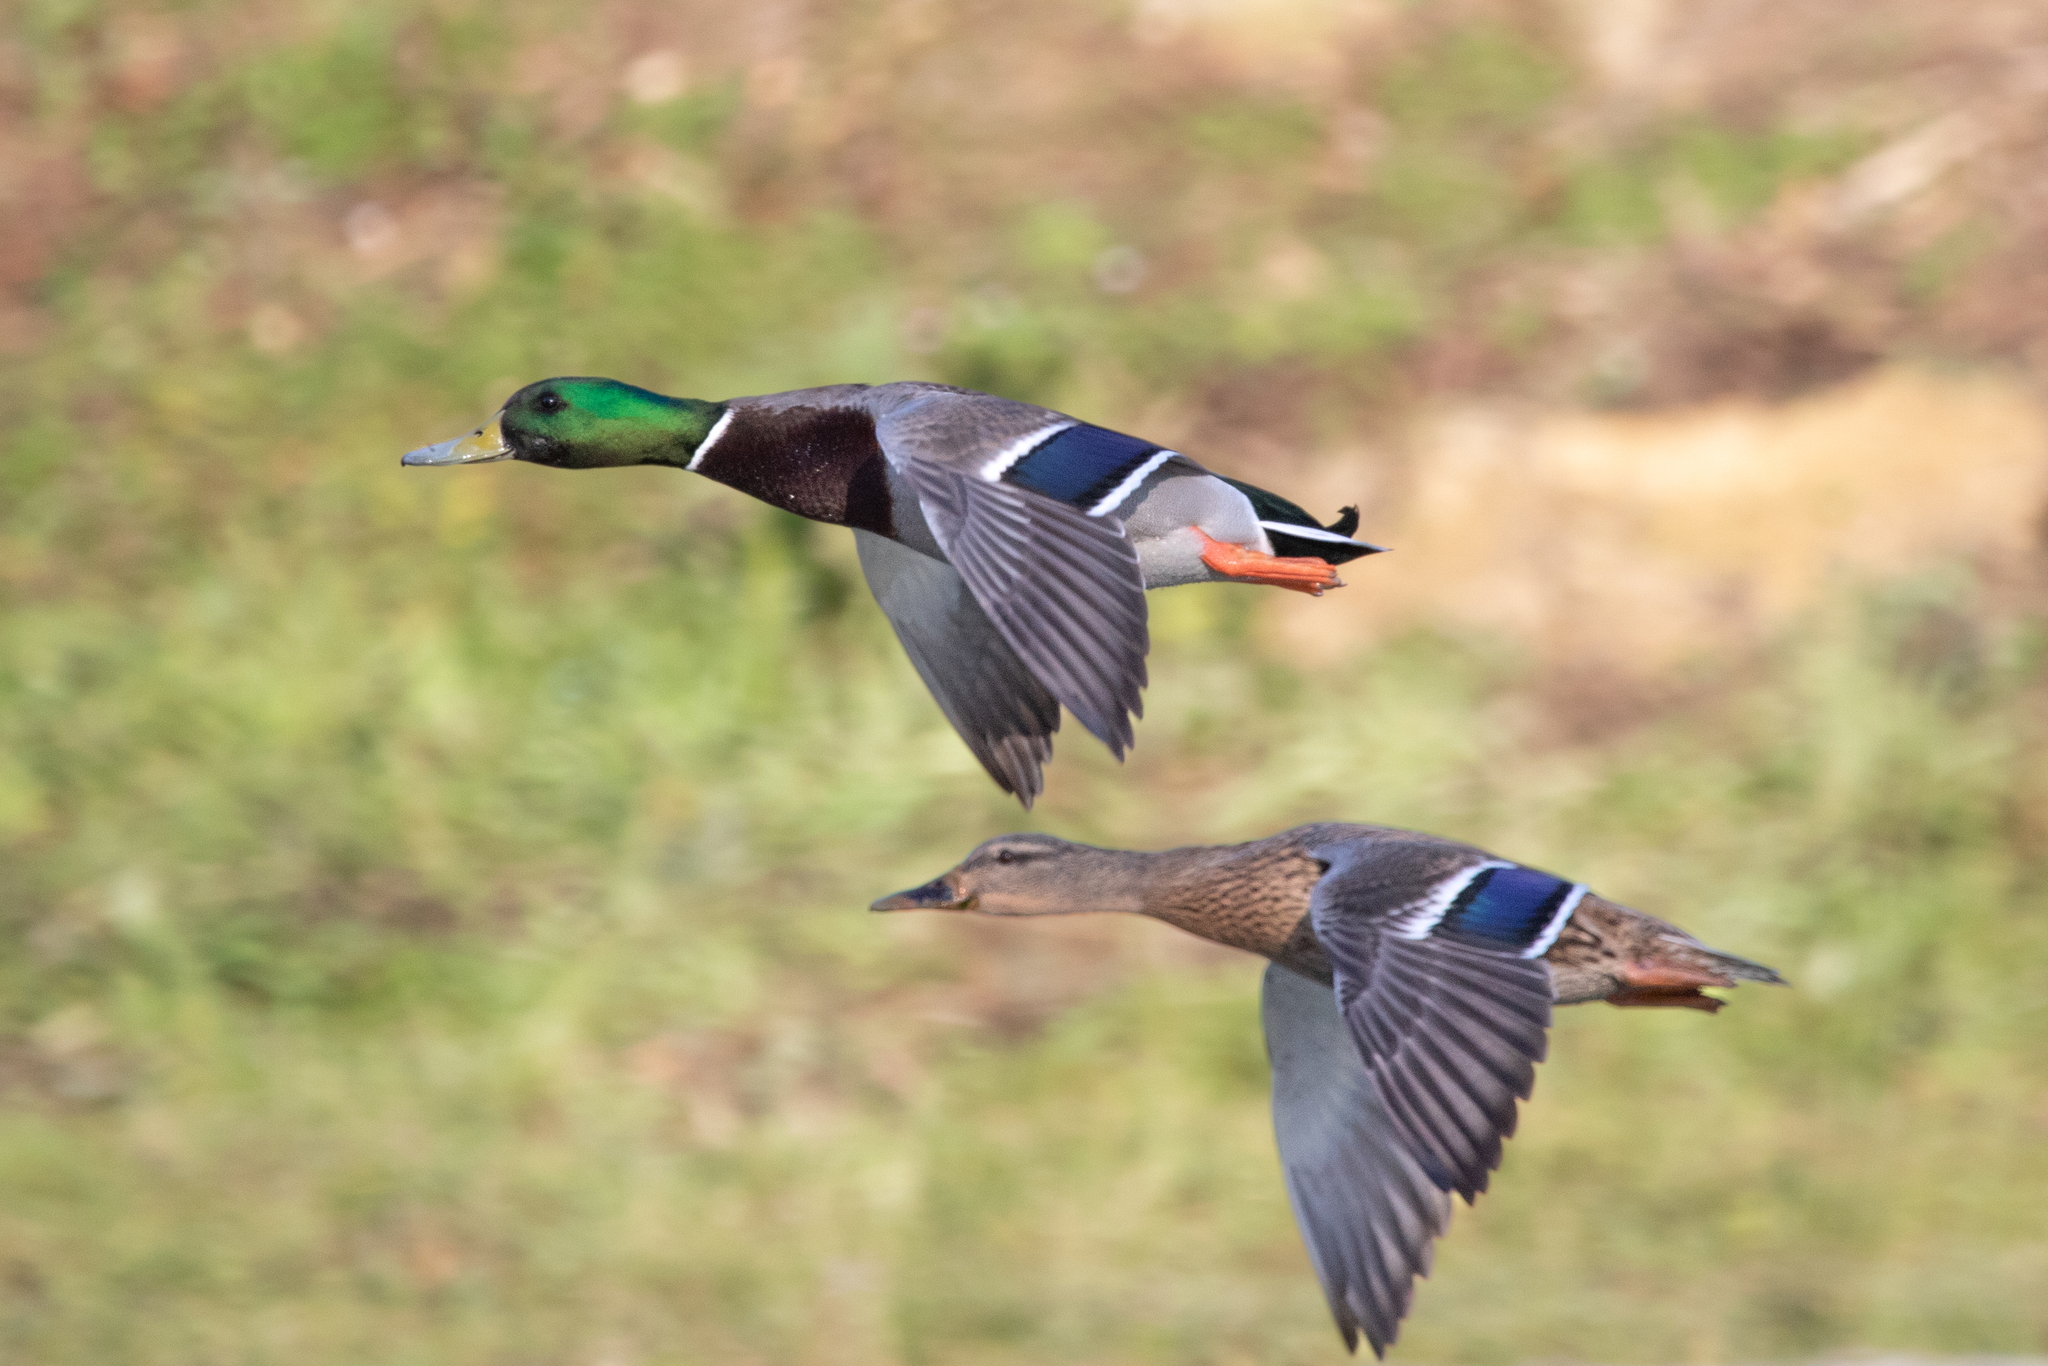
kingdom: Animalia
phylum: Chordata
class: Aves
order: Anseriformes
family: Anatidae
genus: Anas
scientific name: Anas platyrhynchos
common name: Mallard
